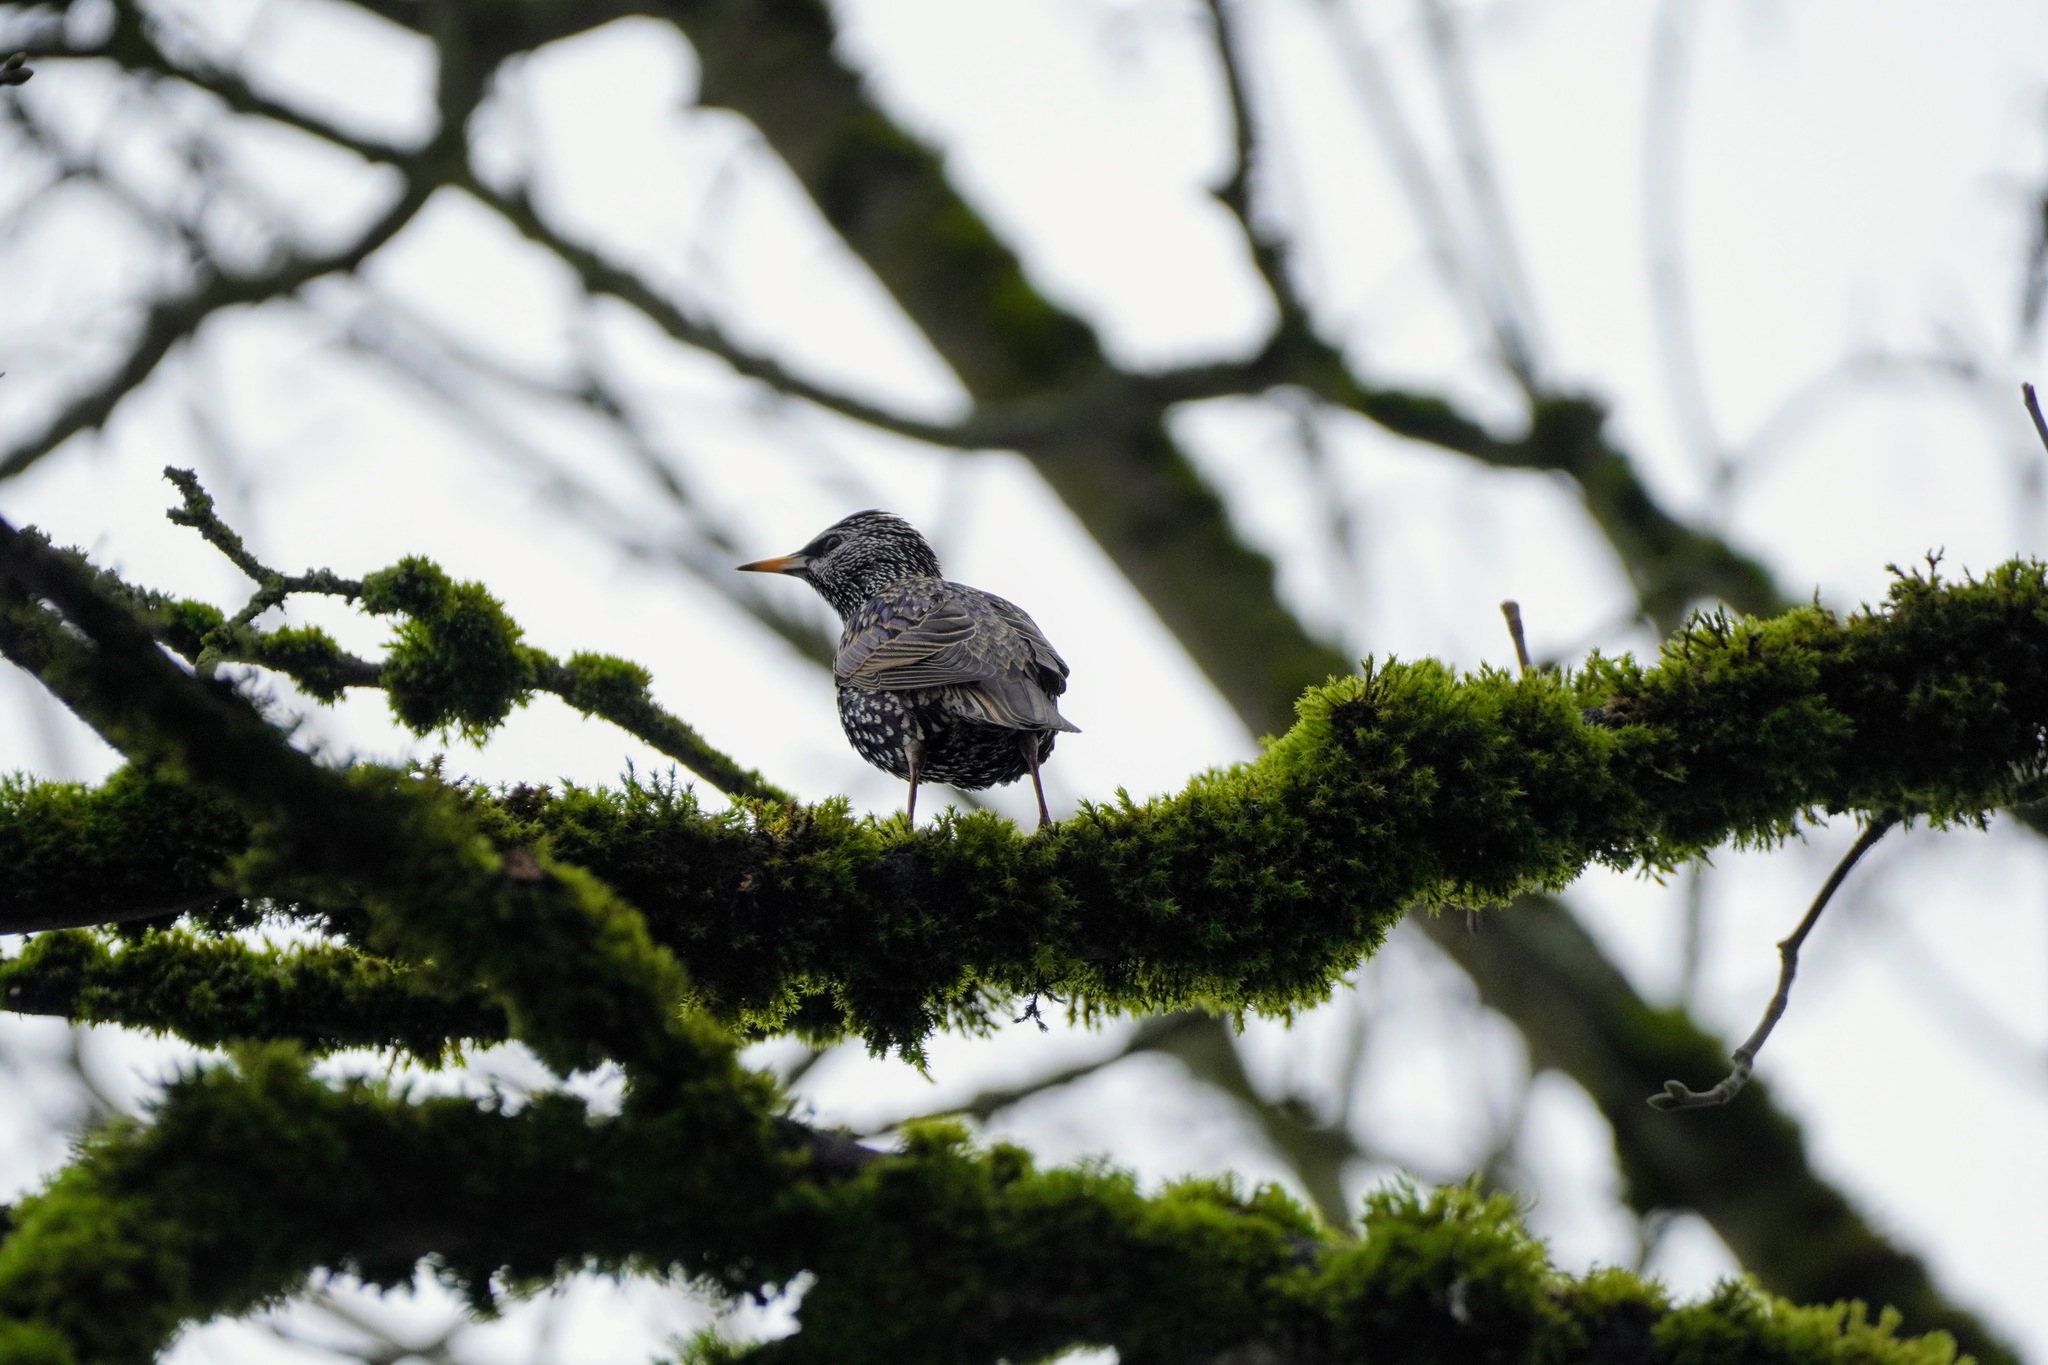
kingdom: Animalia
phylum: Chordata
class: Aves
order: Passeriformes
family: Sturnidae
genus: Sturnus
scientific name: Sturnus vulgaris
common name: Common starling
